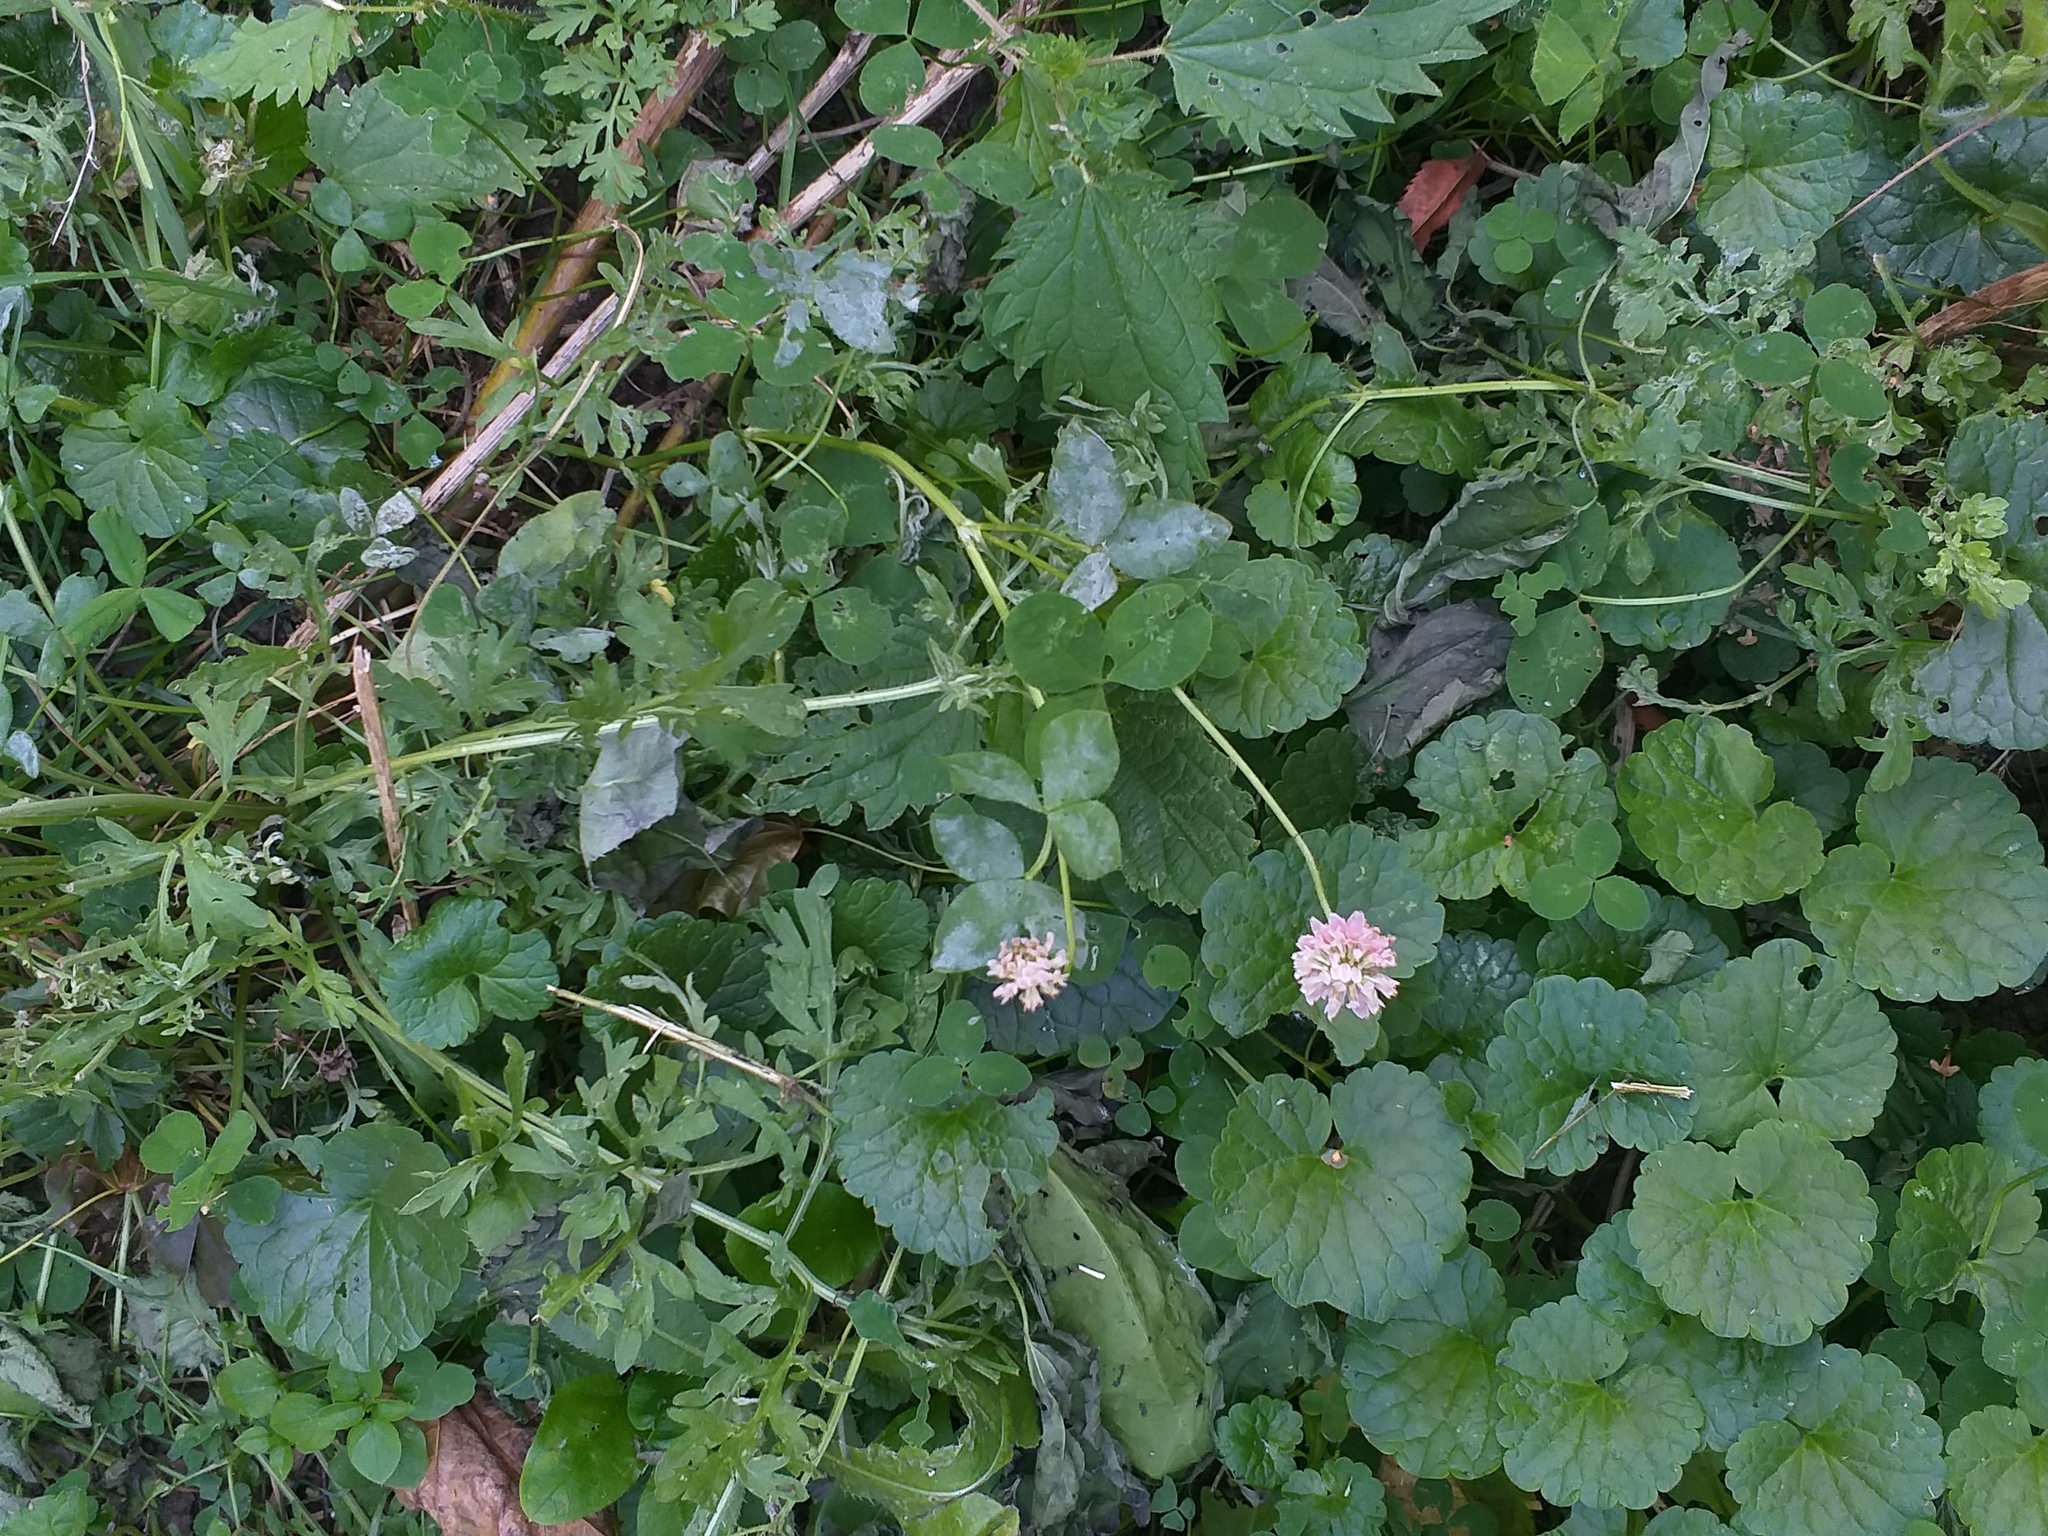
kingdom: Plantae
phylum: Tracheophyta
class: Magnoliopsida
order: Fabales
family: Fabaceae
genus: Trifolium
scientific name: Trifolium hybridum
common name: Alsike clover
